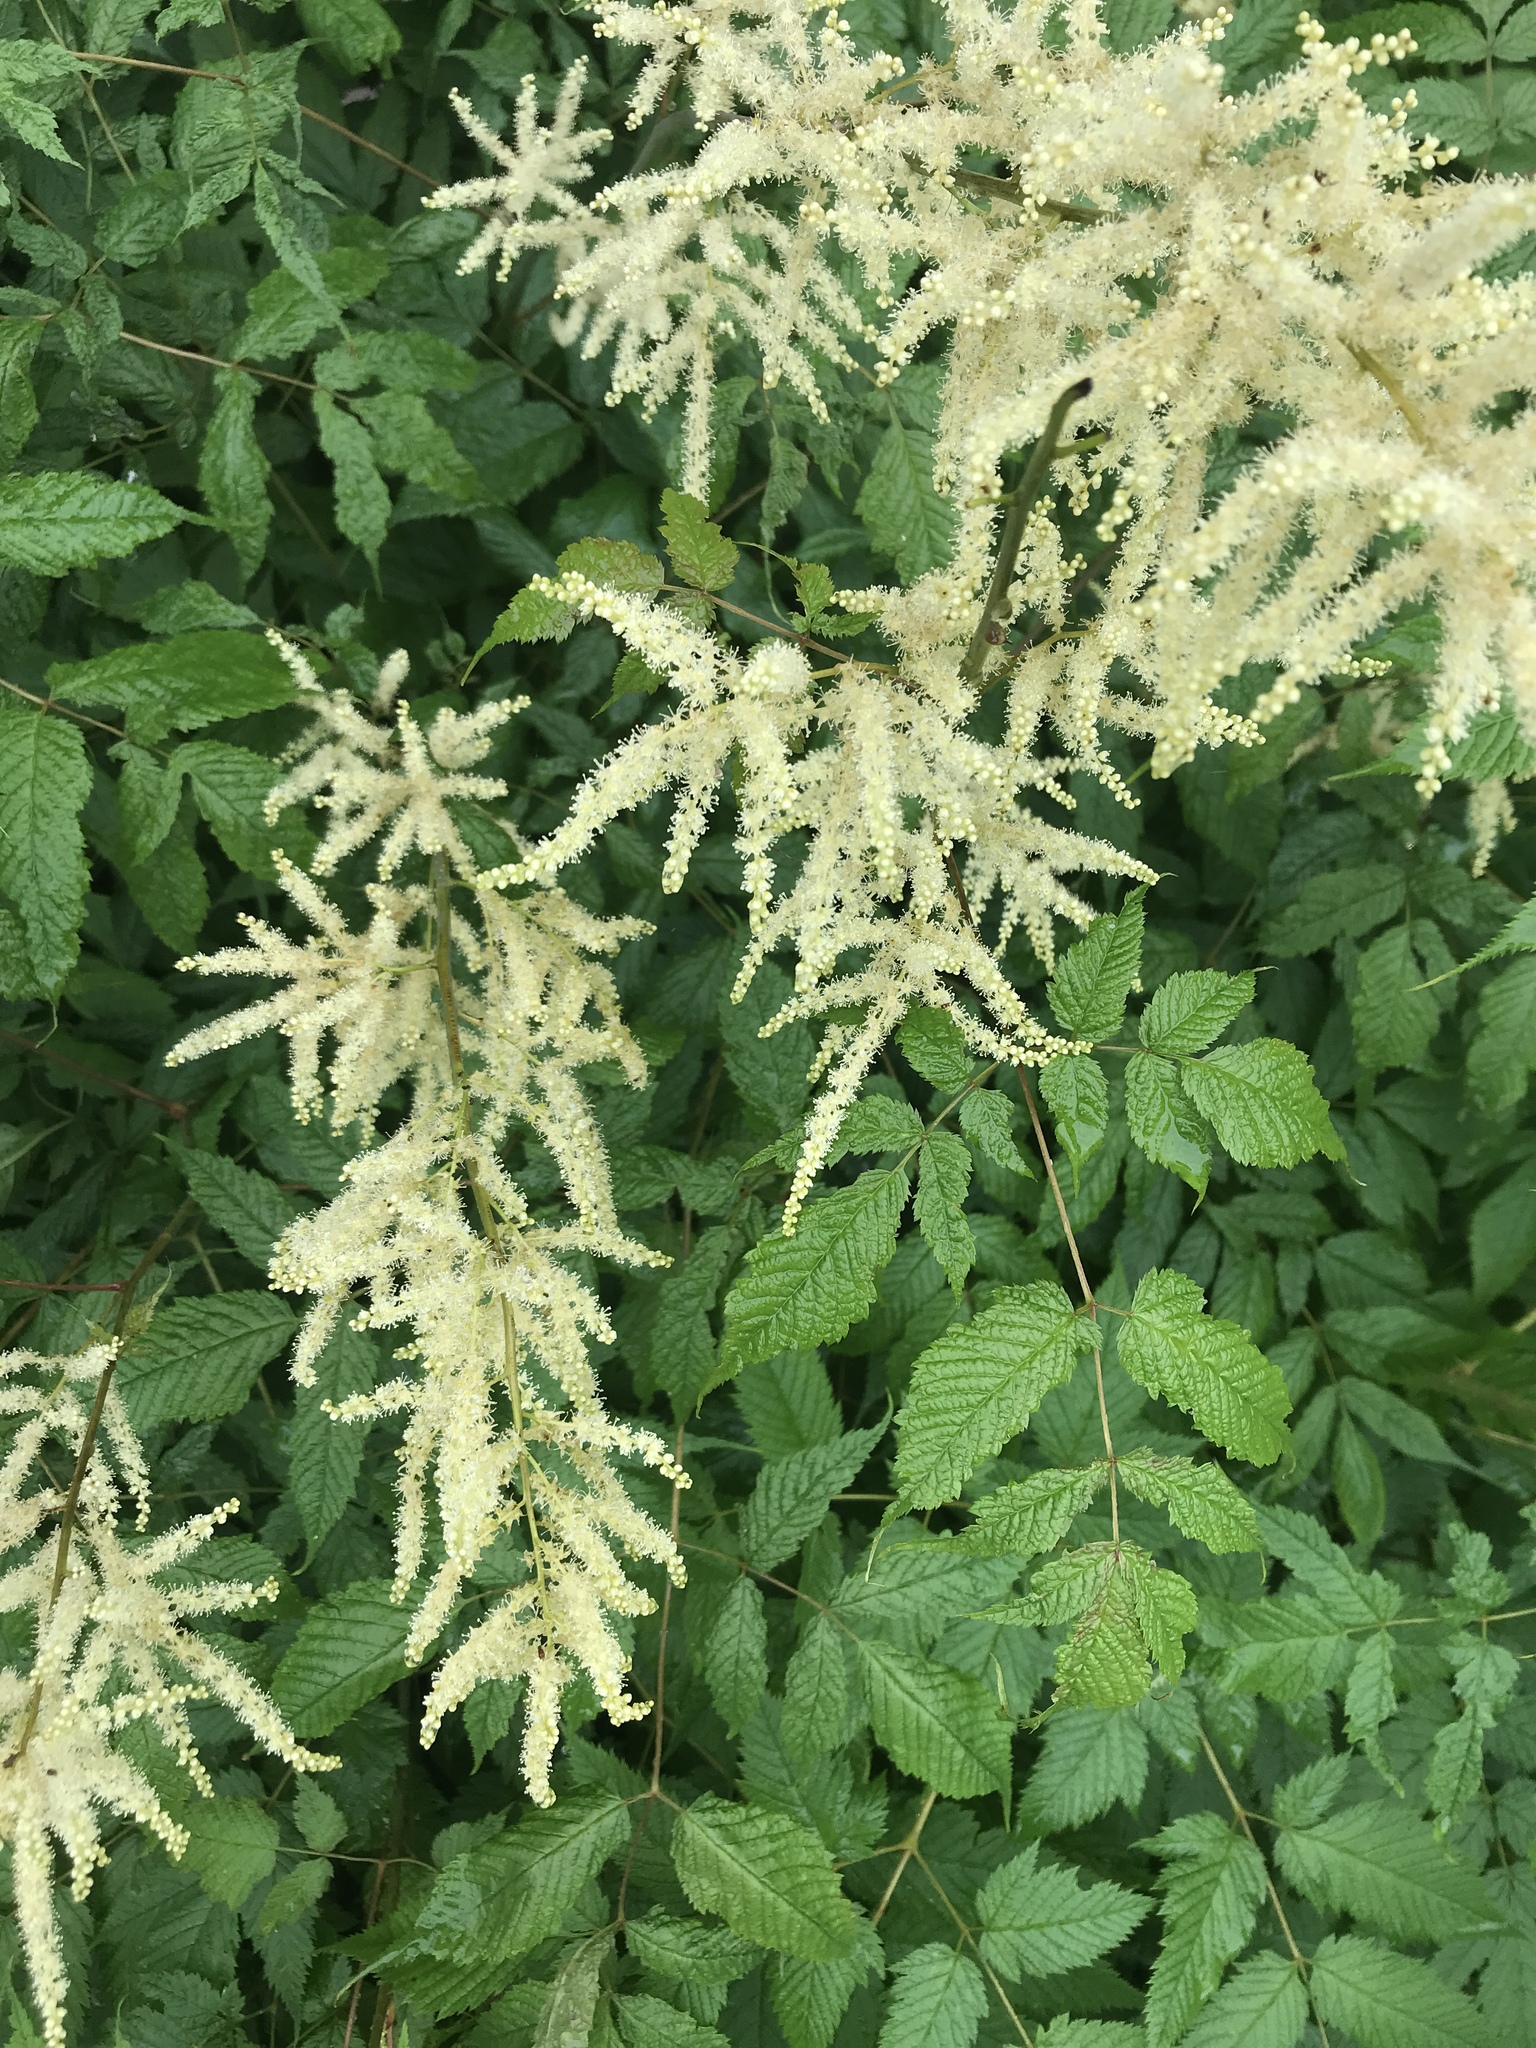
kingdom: Plantae
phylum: Tracheophyta
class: Magnoliopsida
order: Rosales
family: Rosaceae
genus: Aruncus
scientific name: Aruncus dioicus
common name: Buck's-beard
